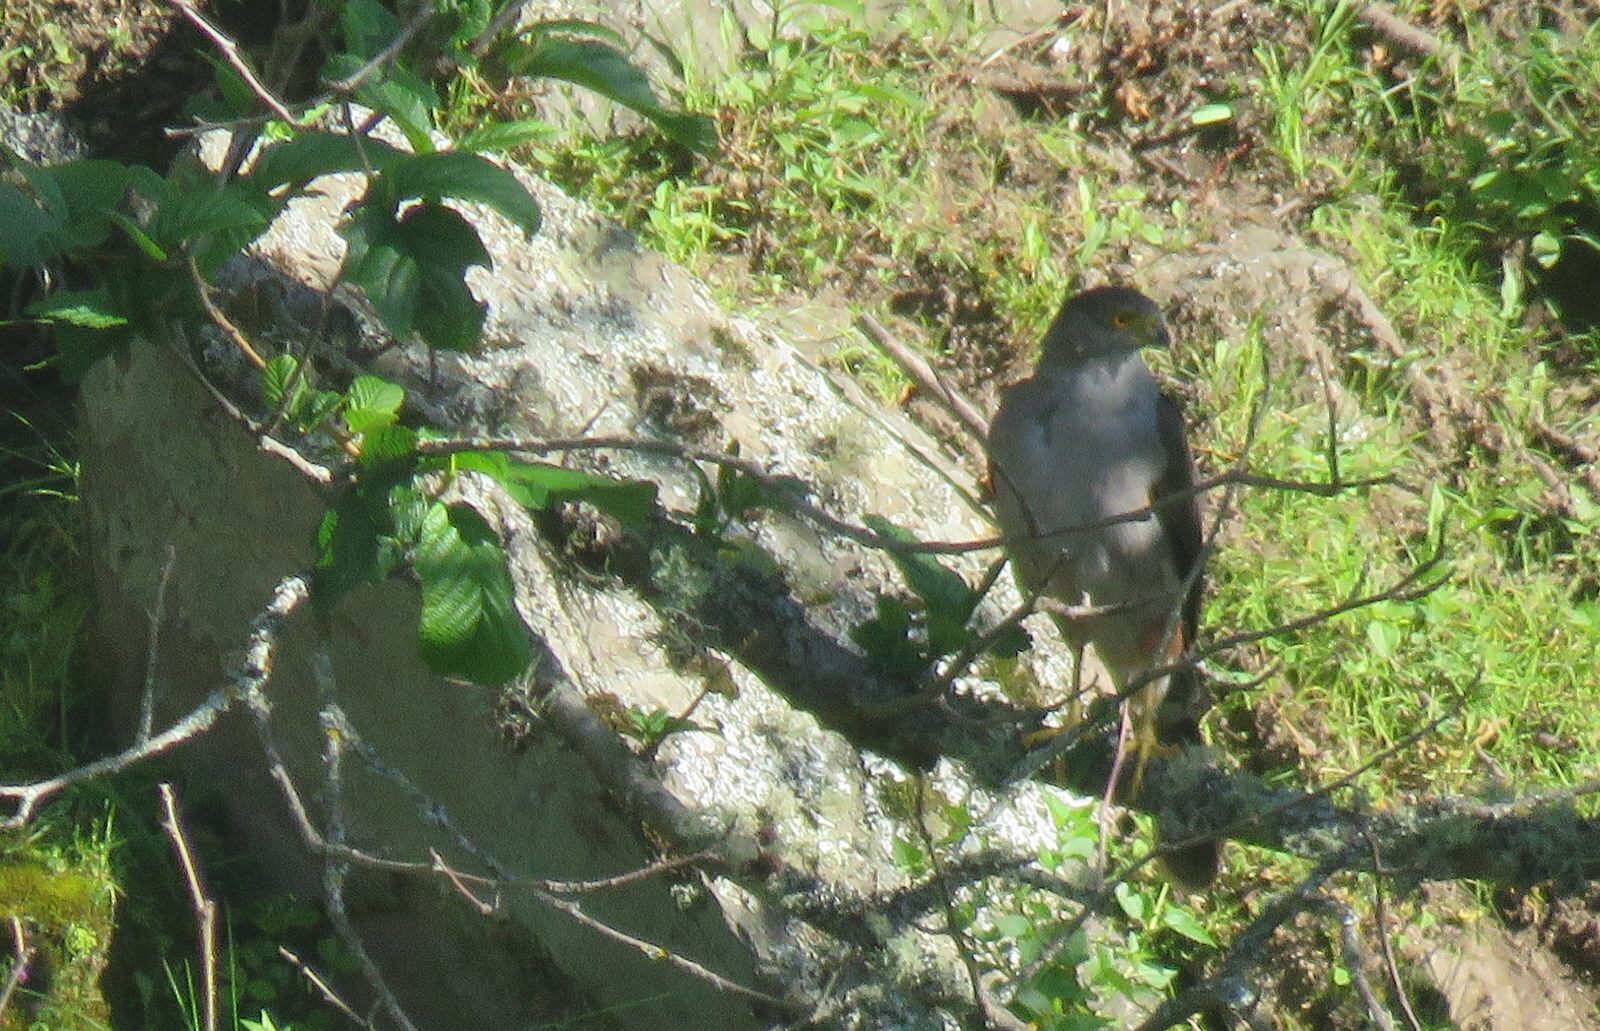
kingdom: Animalia
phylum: Chordata
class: Aves
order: Accipitriformes
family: Accipitridae
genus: Accipiter
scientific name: Accipiter bicolor
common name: Bicolored hawk
